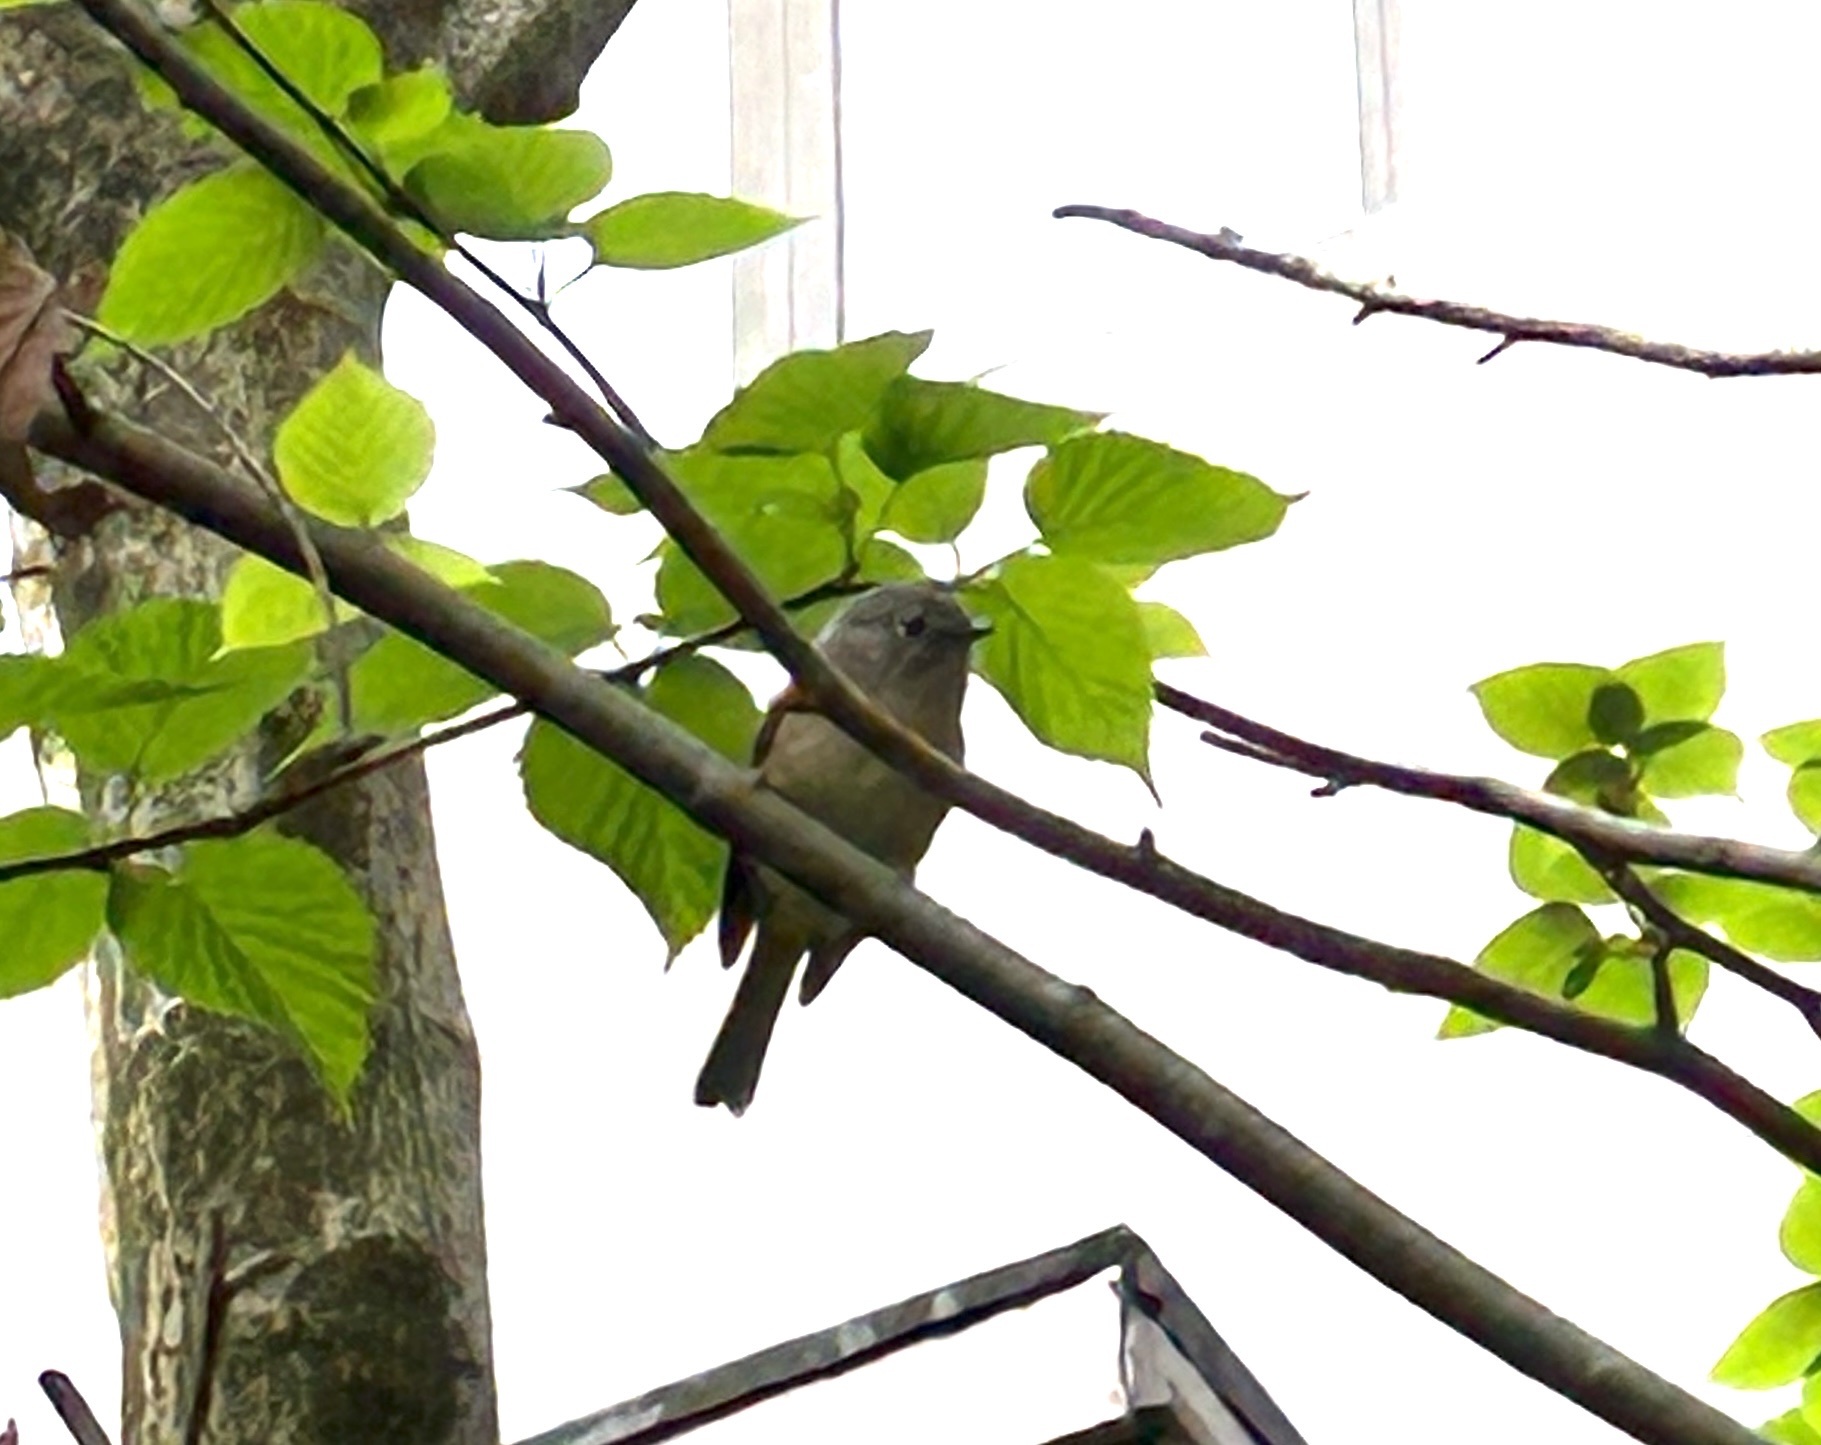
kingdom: Animalia
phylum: Chordata
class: Aves
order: Passeriformes
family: Pellorneidae
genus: Alcippe
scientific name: Alcippe davidi
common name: David's fulvetta
